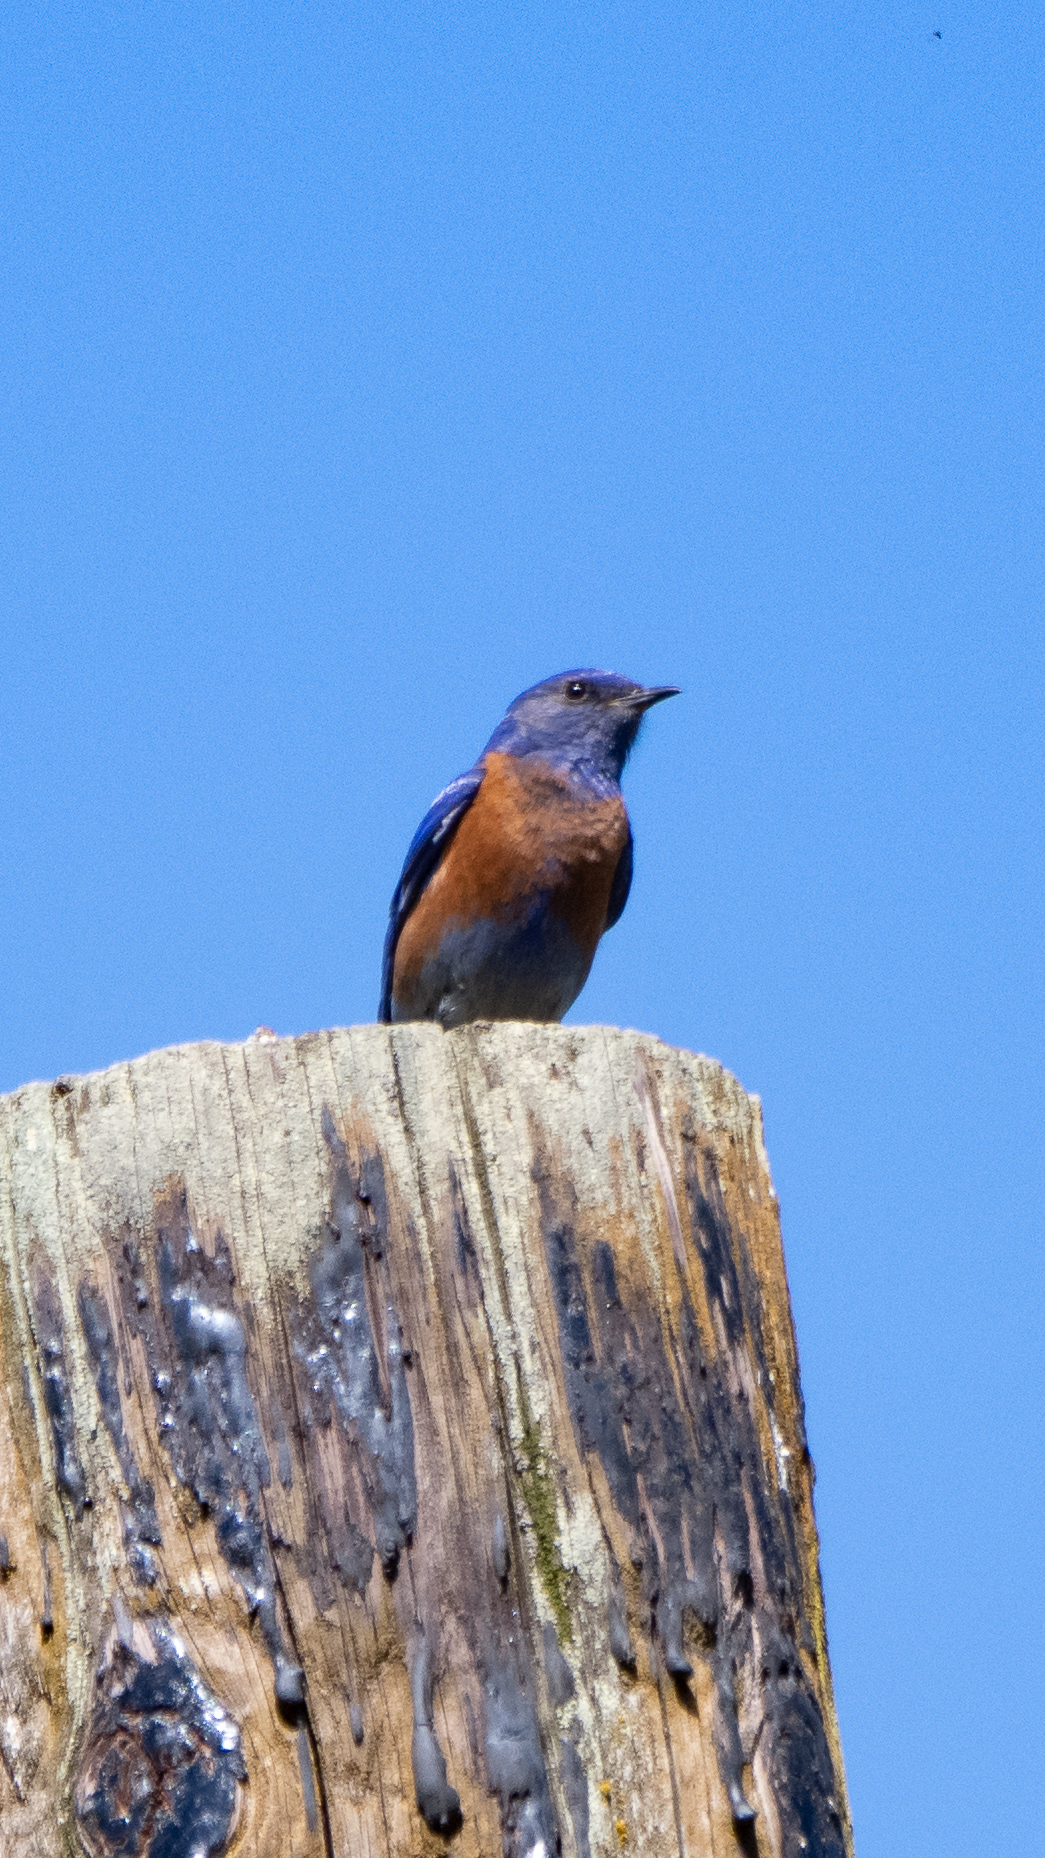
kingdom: Animalia
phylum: Chordata
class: Aves
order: Passeriformes
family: Turdidae
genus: Sialia
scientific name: Sialia mexicana
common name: Western bluebird
